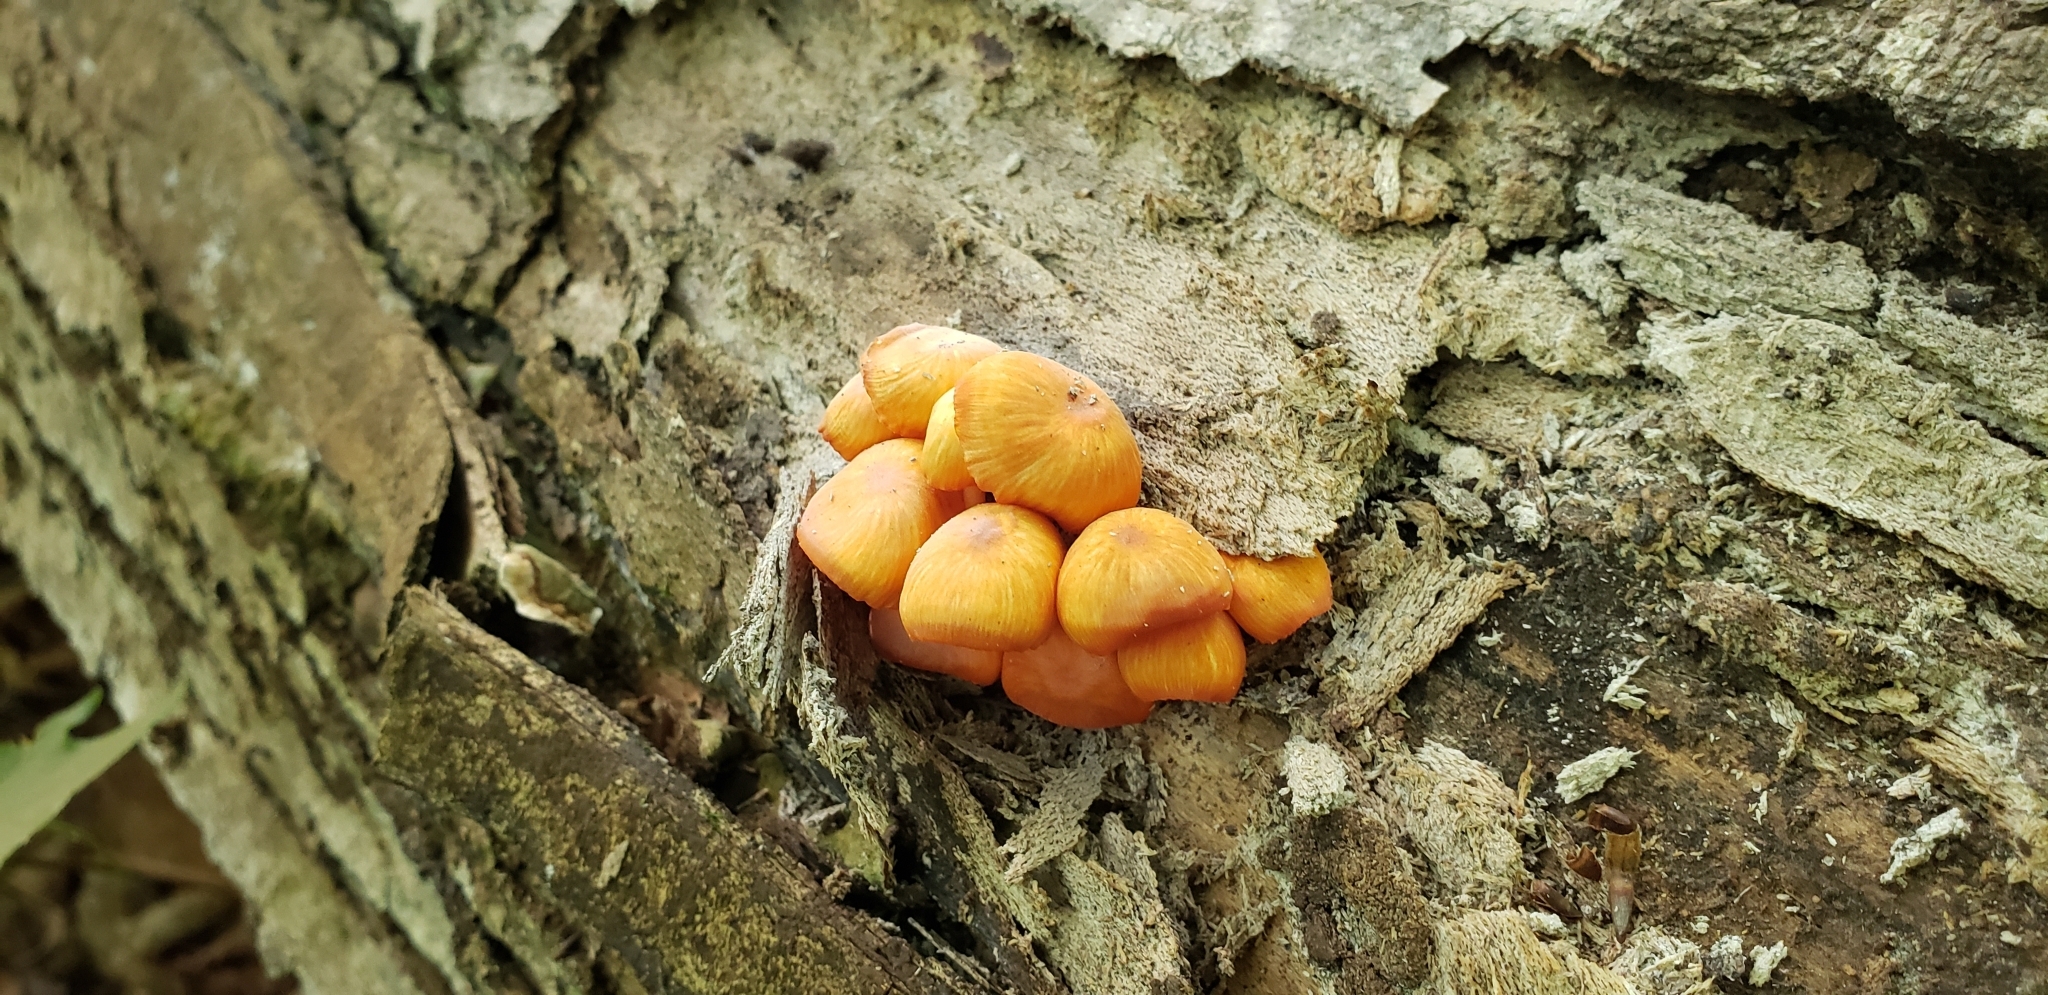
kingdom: Fungi
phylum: Basidiomycota
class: Agaricomycetes
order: Agaricales
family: Mycenaceae
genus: Mycena
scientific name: Mycena leaiana
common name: Orange mycena
